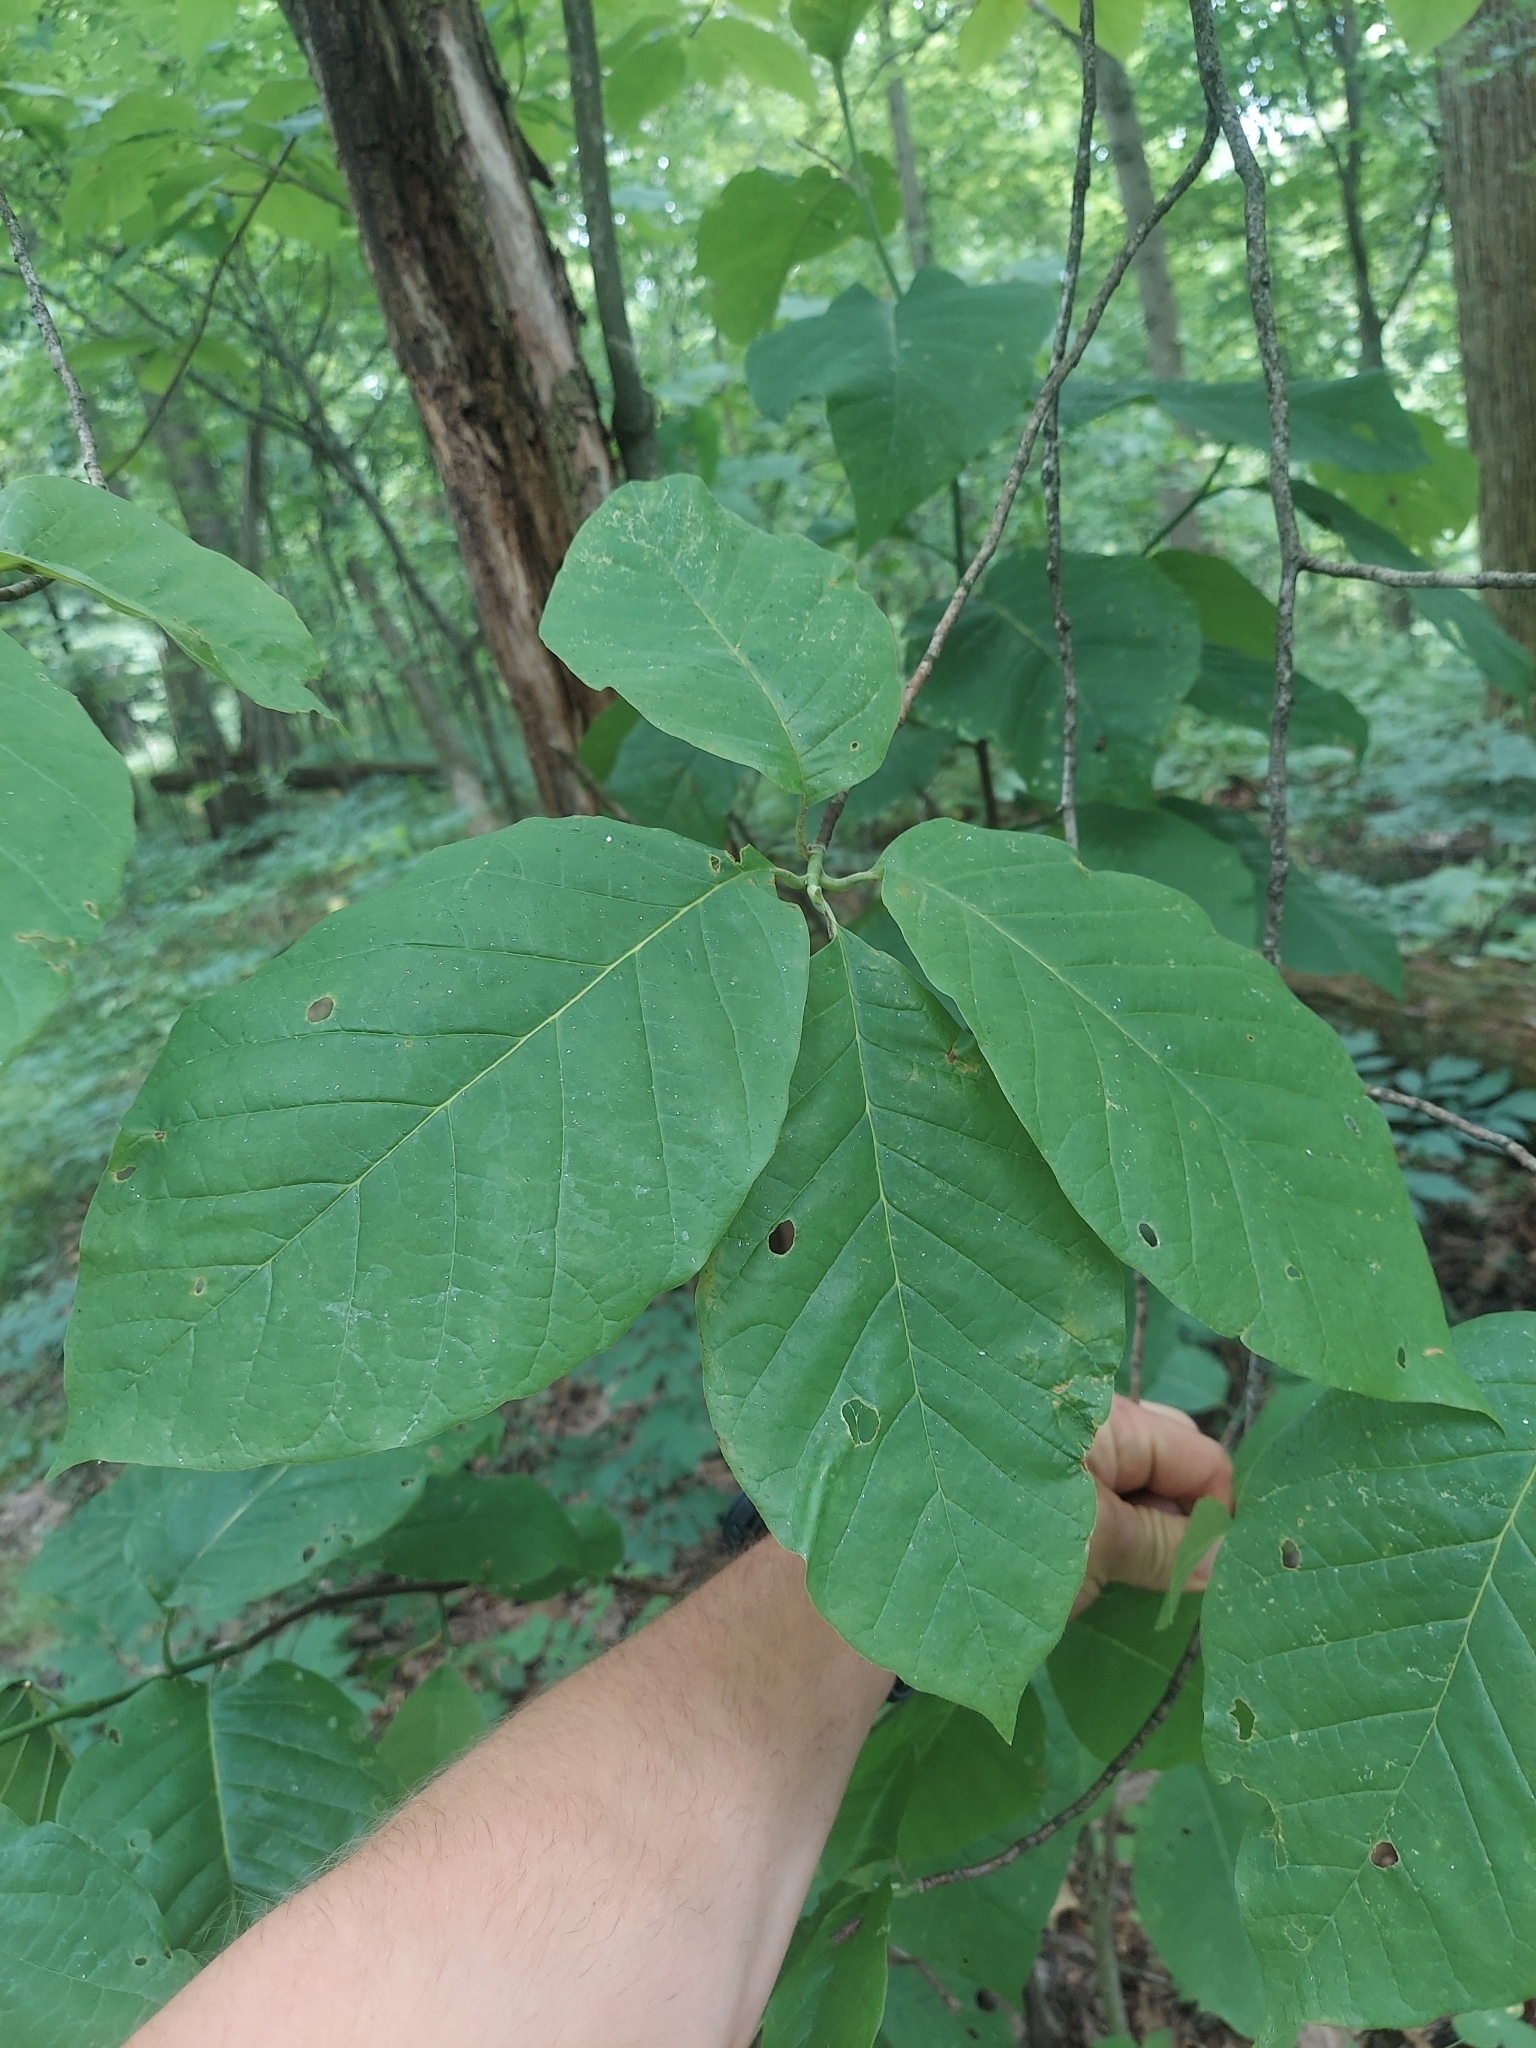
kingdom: Plantae
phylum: Tracheophyta
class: Magnoliopsida
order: Magnoliales
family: Magnoliaceae
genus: Magnolia
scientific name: Magnolia acuminata
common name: Cucumber magnolia
